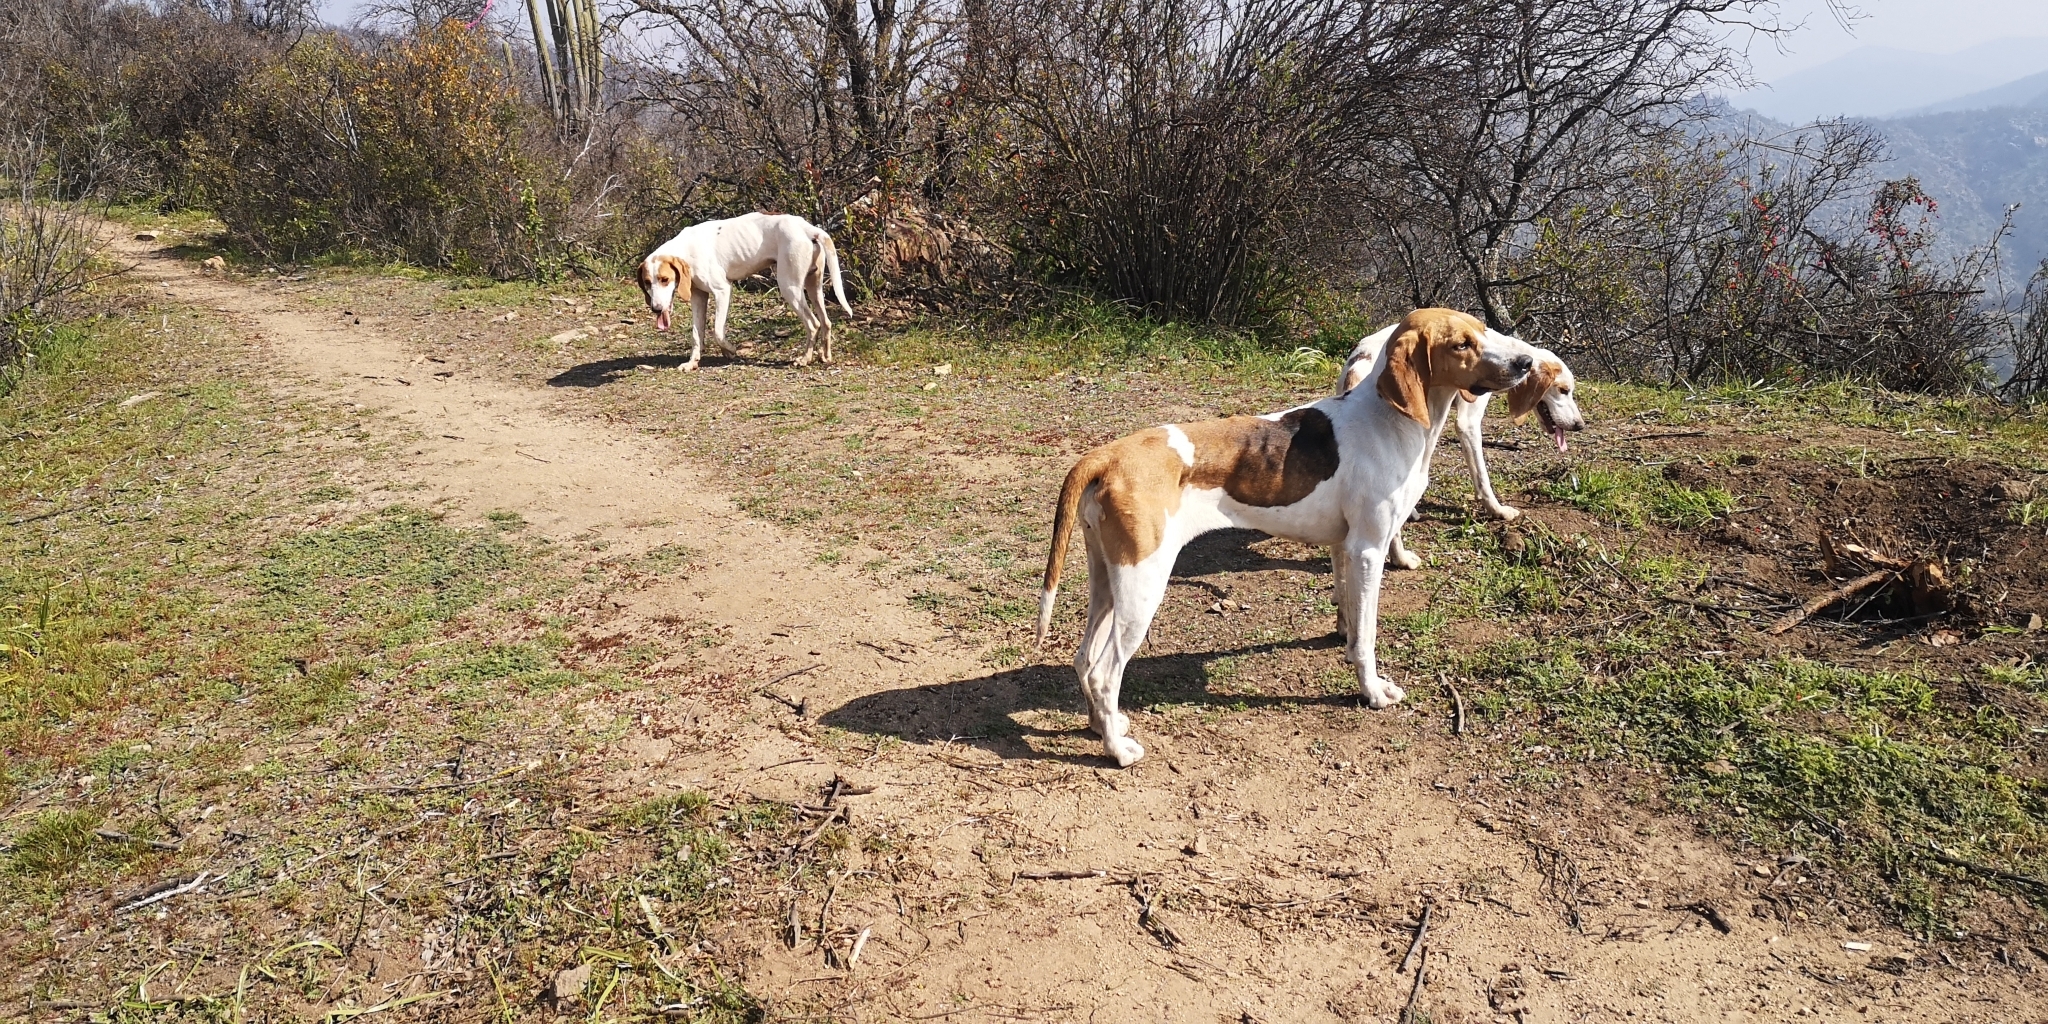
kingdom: Animalia
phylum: Chordata
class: Mammalia
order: Carnivora
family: Canidae
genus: Canis
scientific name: Canis lupus
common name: Gray wolf
